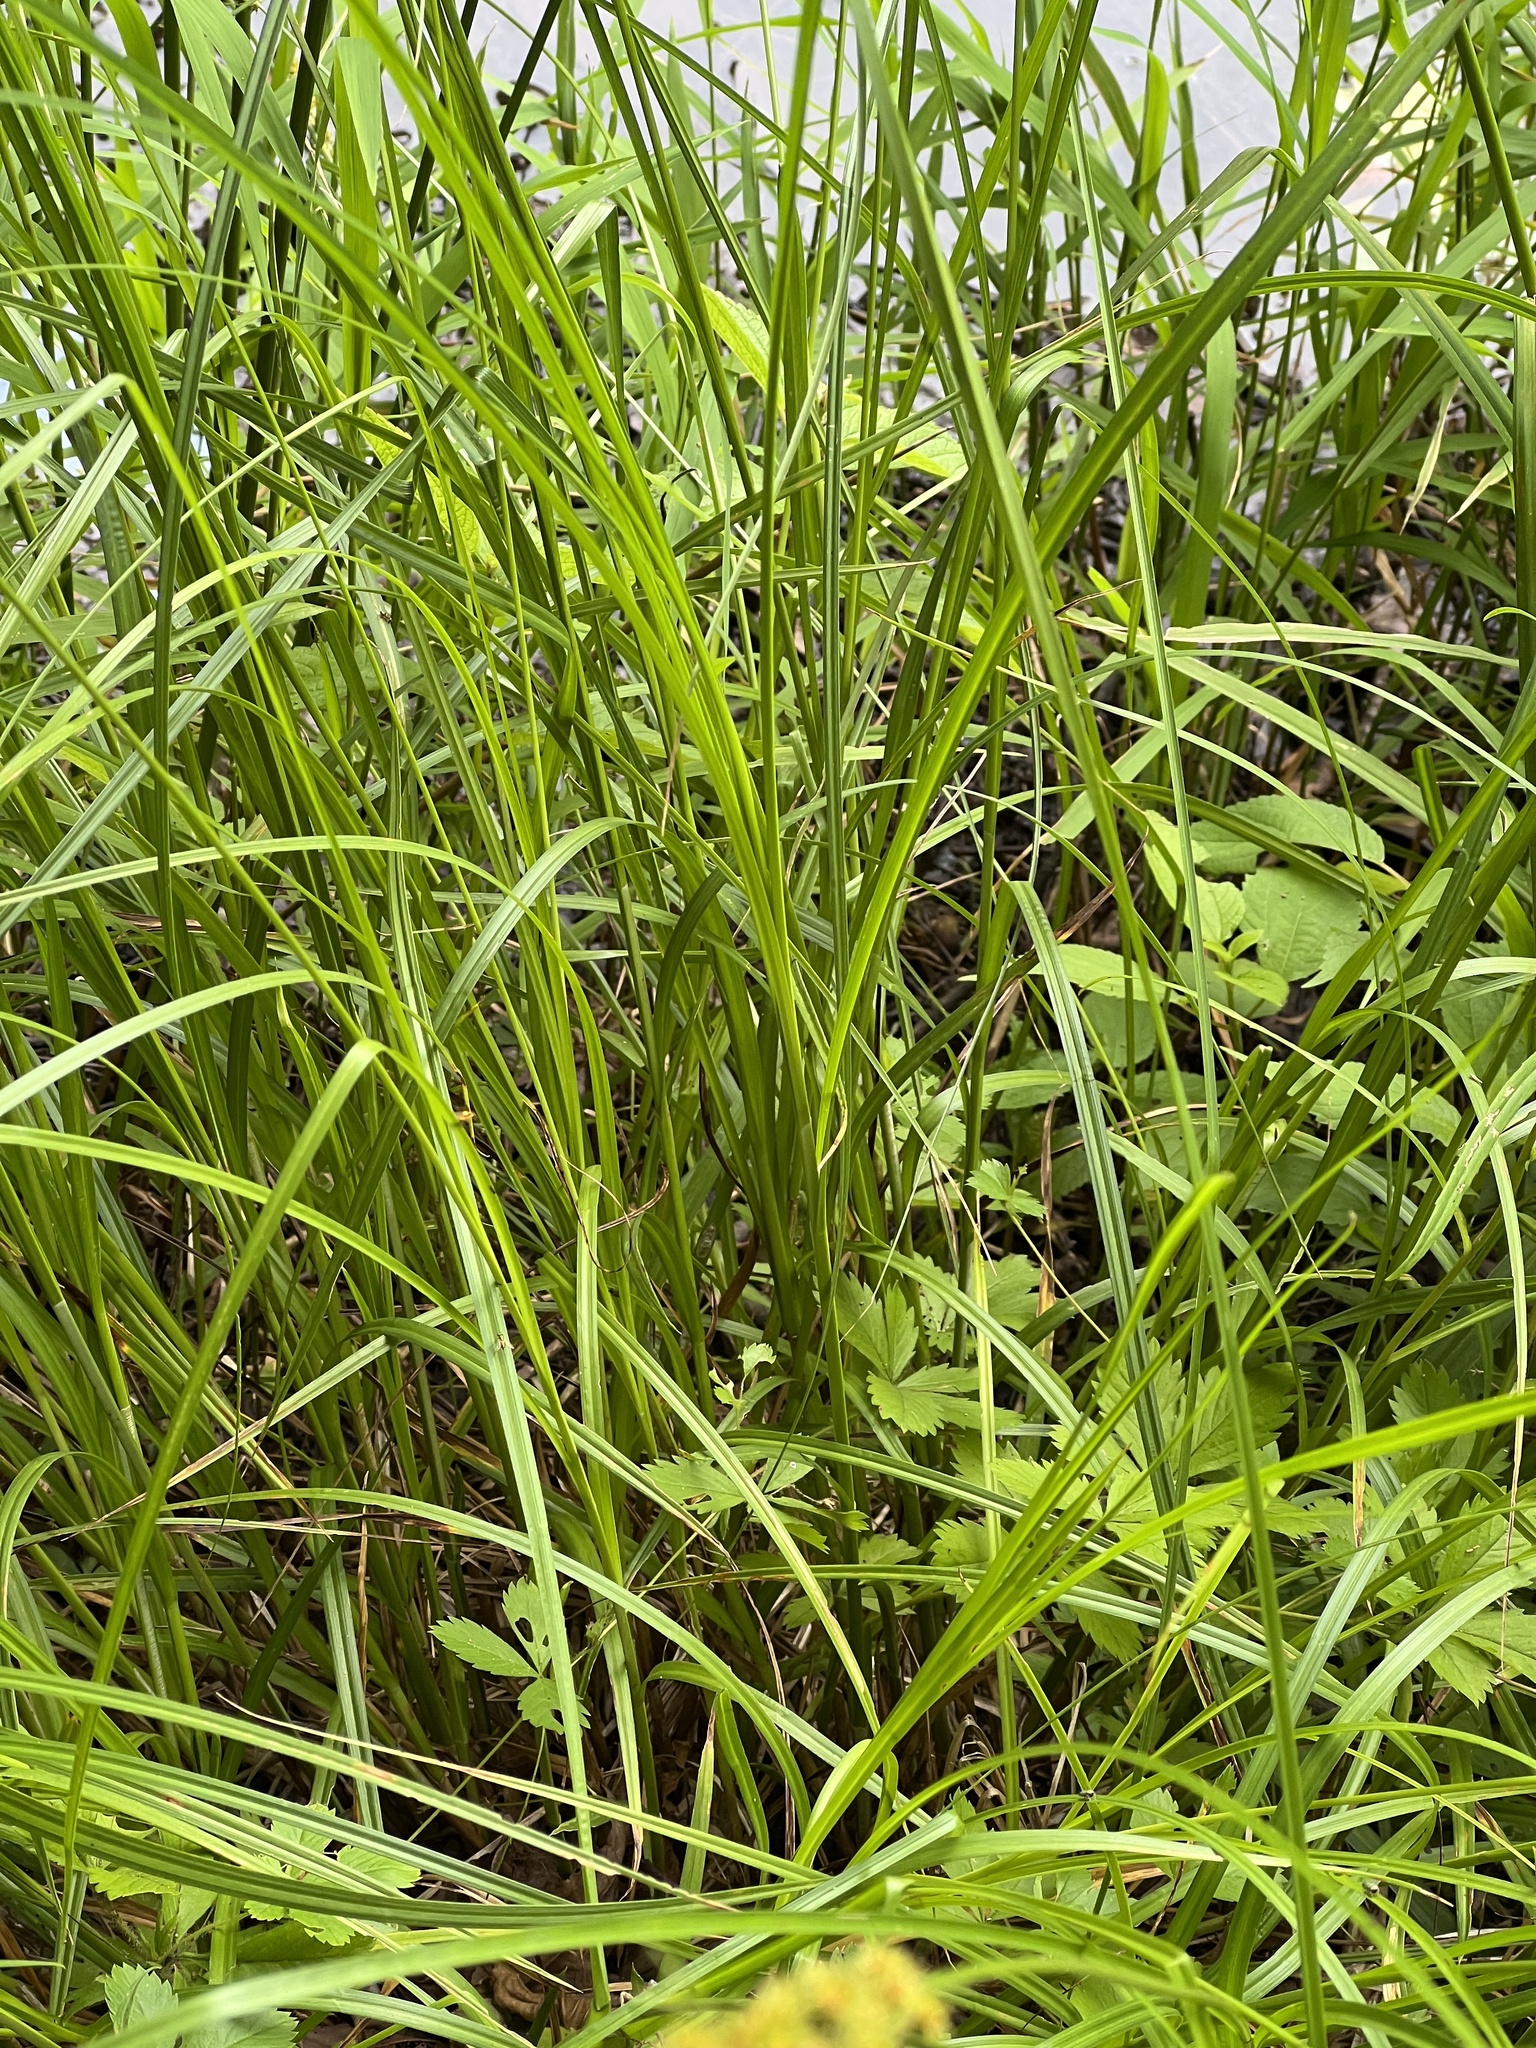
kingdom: Plantae
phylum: Tracheophyta
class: Liliopsida
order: Poales
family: Cyperaceae
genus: Carex
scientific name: Carex vulpinoidea
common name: American fox-sedge
